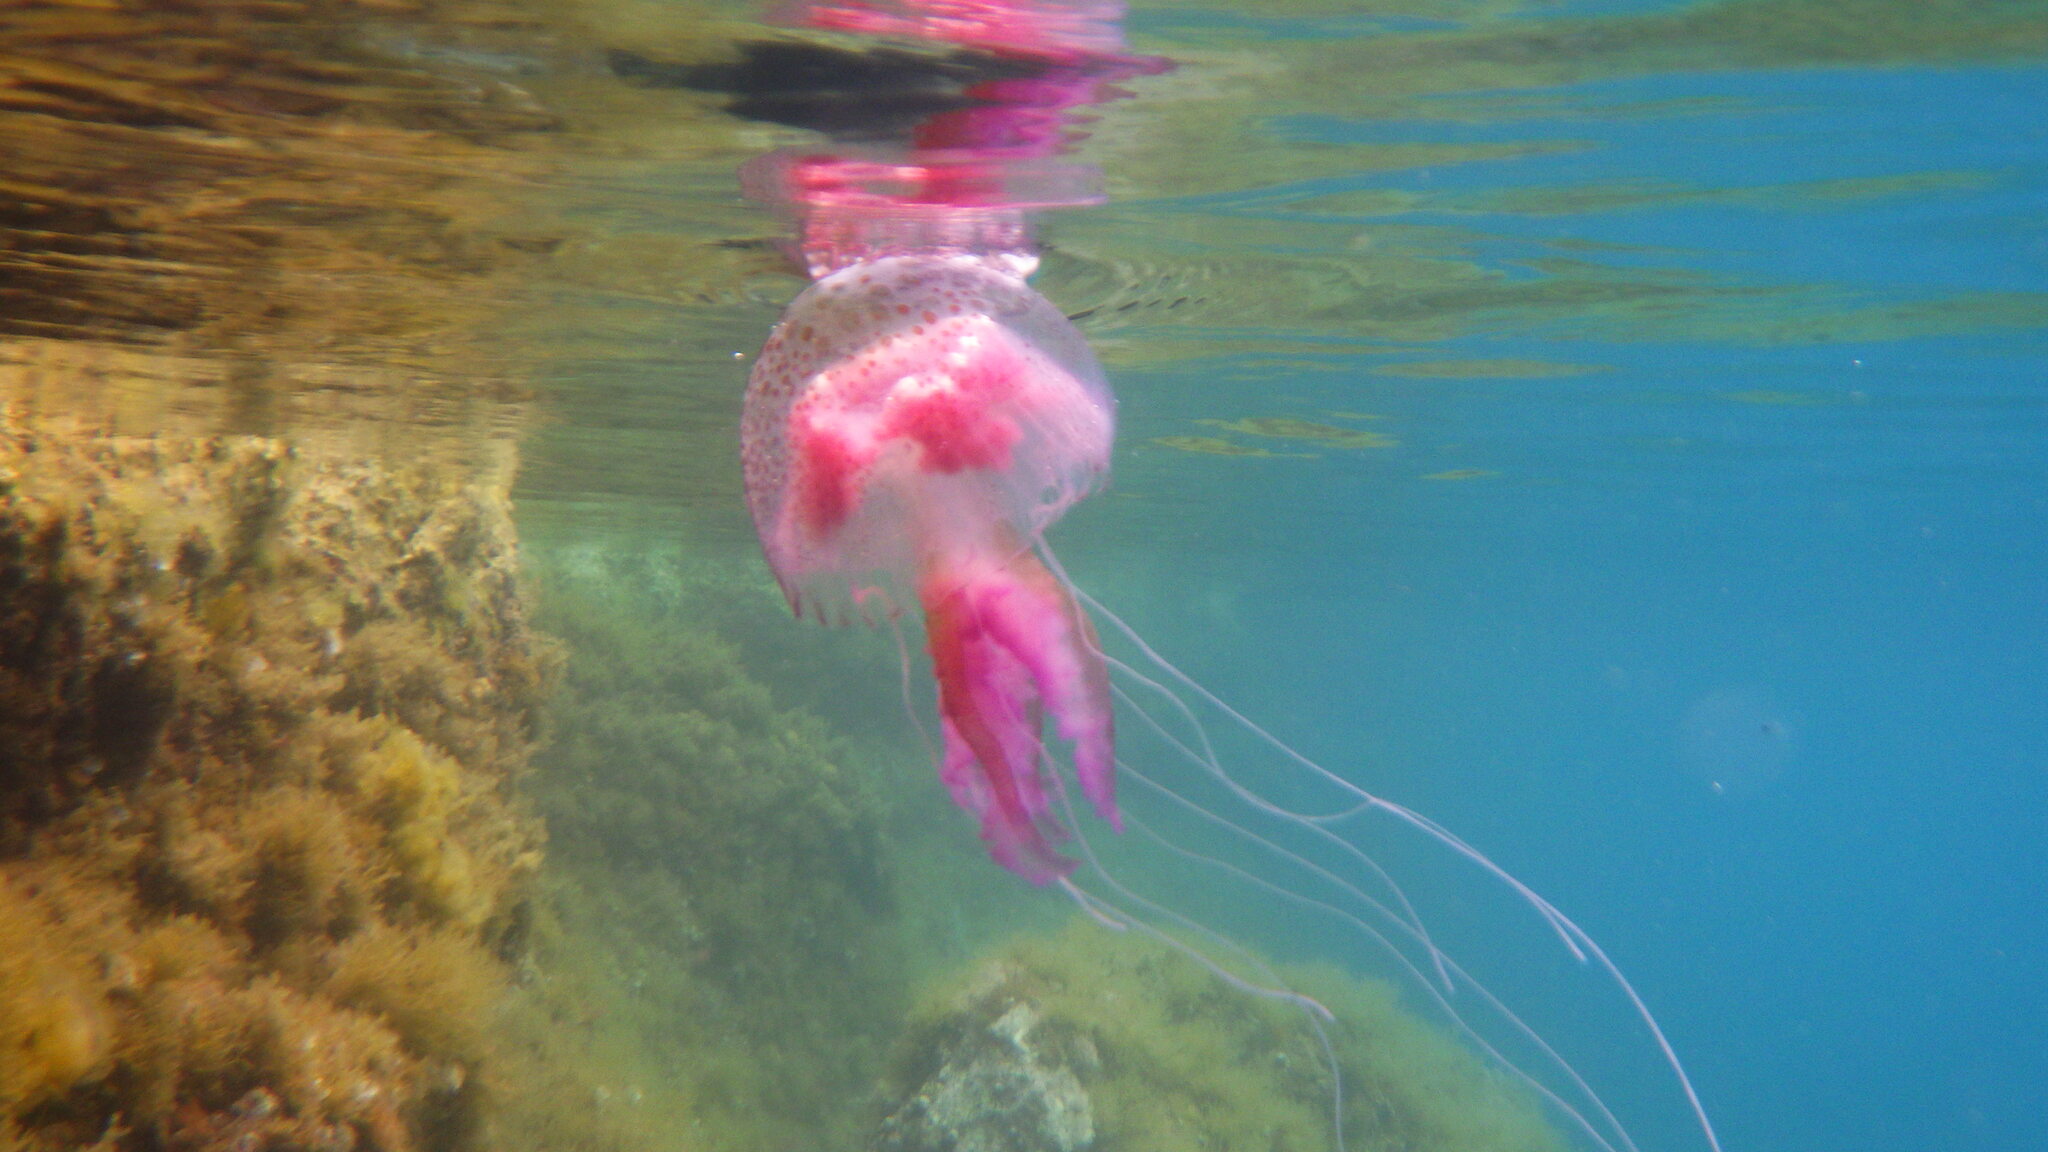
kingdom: Animalia
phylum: Cnidaria
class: Scyphozoa
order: Semaeostomeae
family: Pelagiidae
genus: Pelagia
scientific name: Pelagia noctiluca
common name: Mauve stinger
